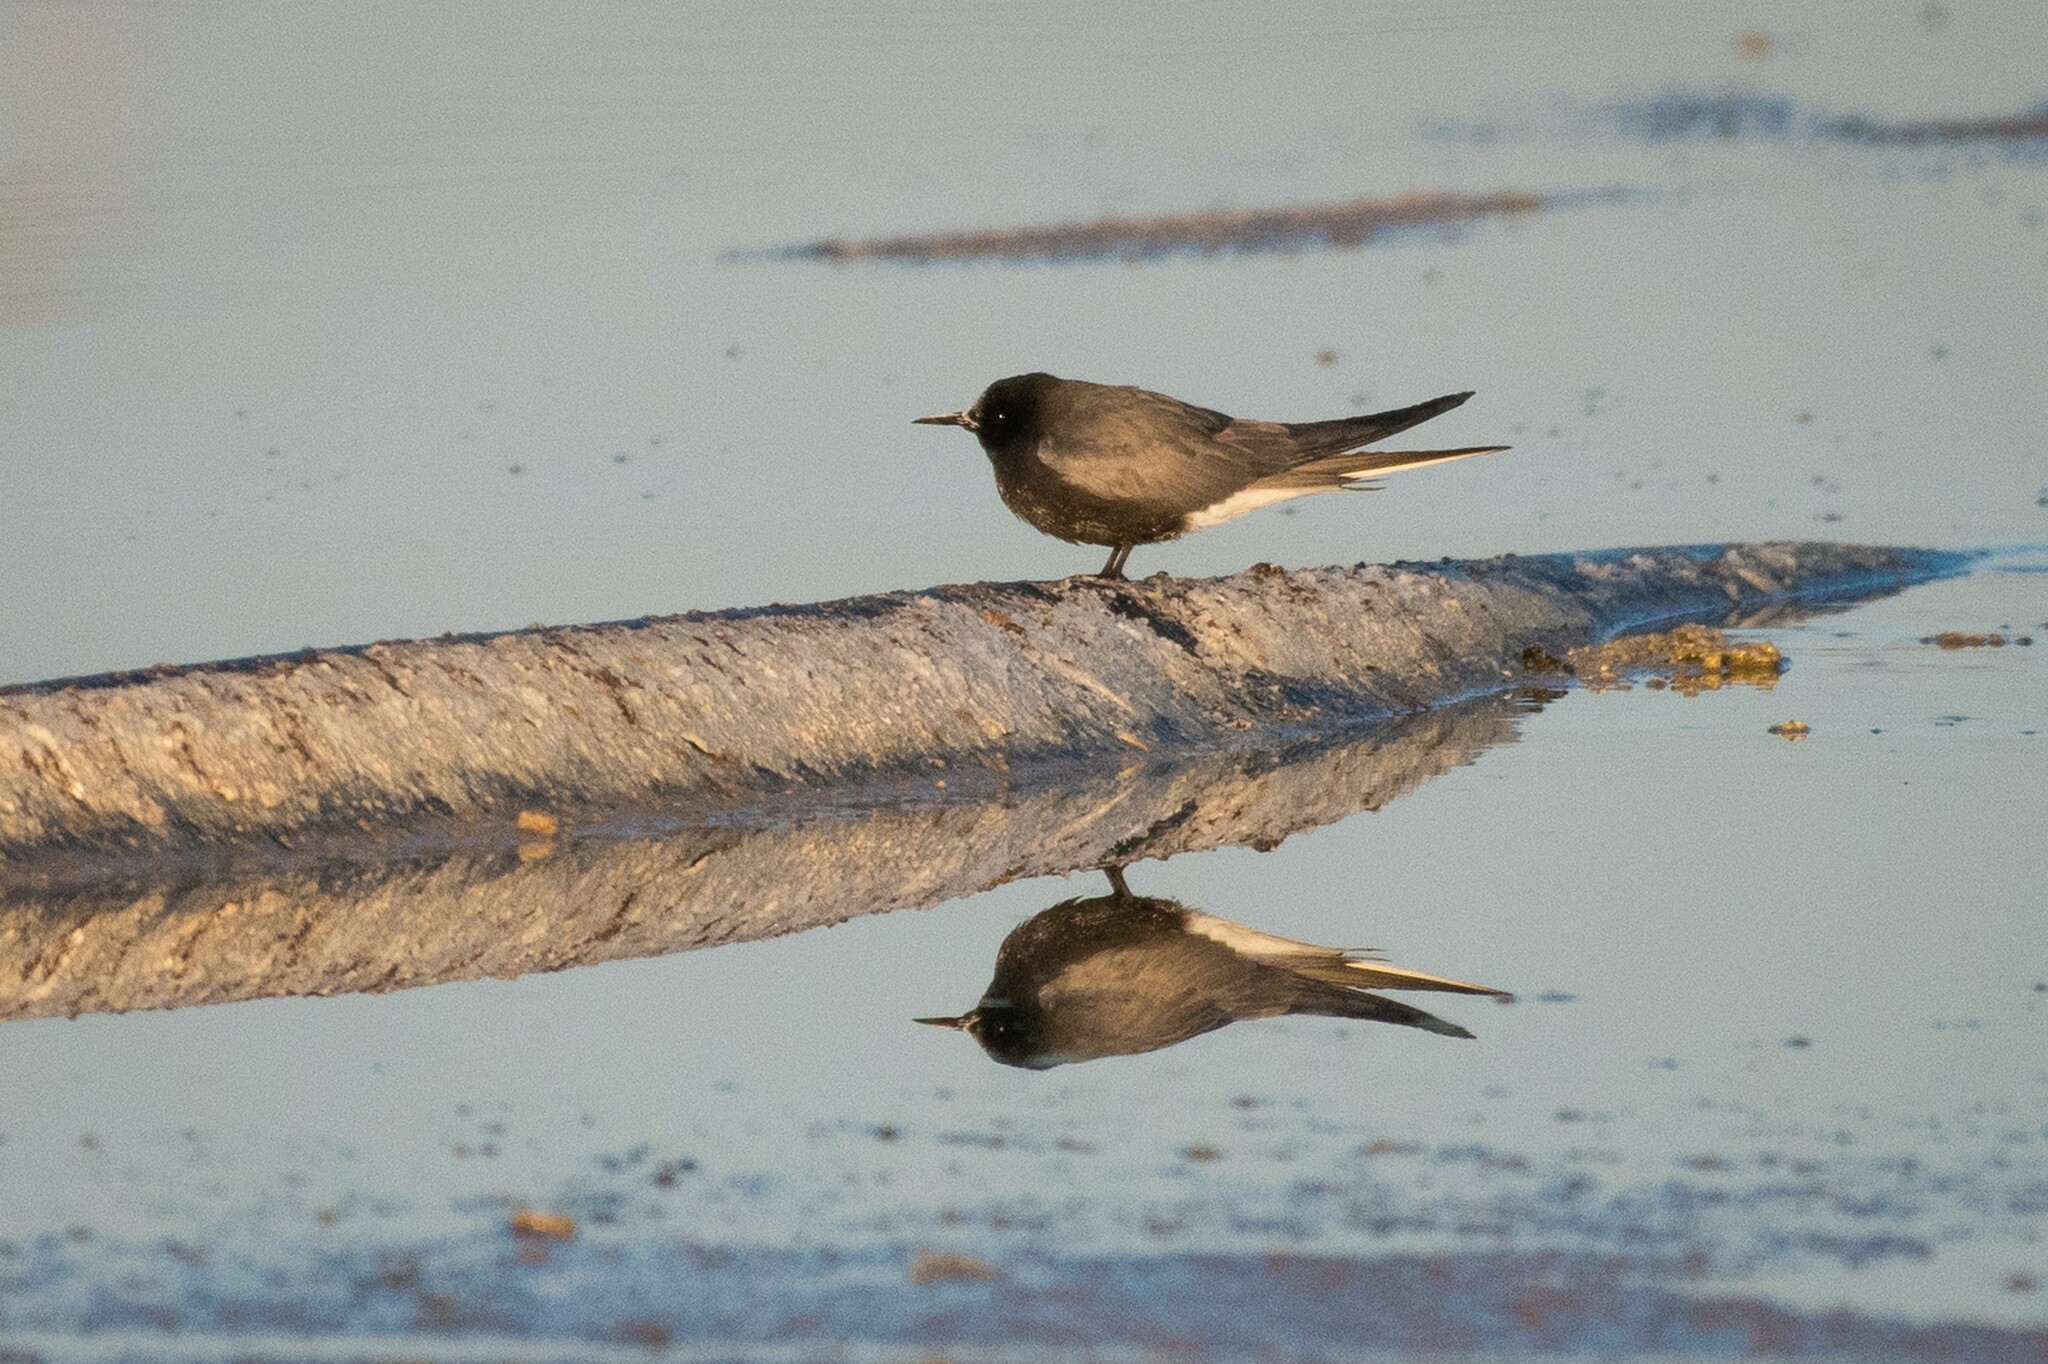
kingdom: Animalia
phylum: Chordata
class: Aves
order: Charadriiformes
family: Laridae
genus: Chlidonias
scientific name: Chlidonias niger
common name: Black tern
